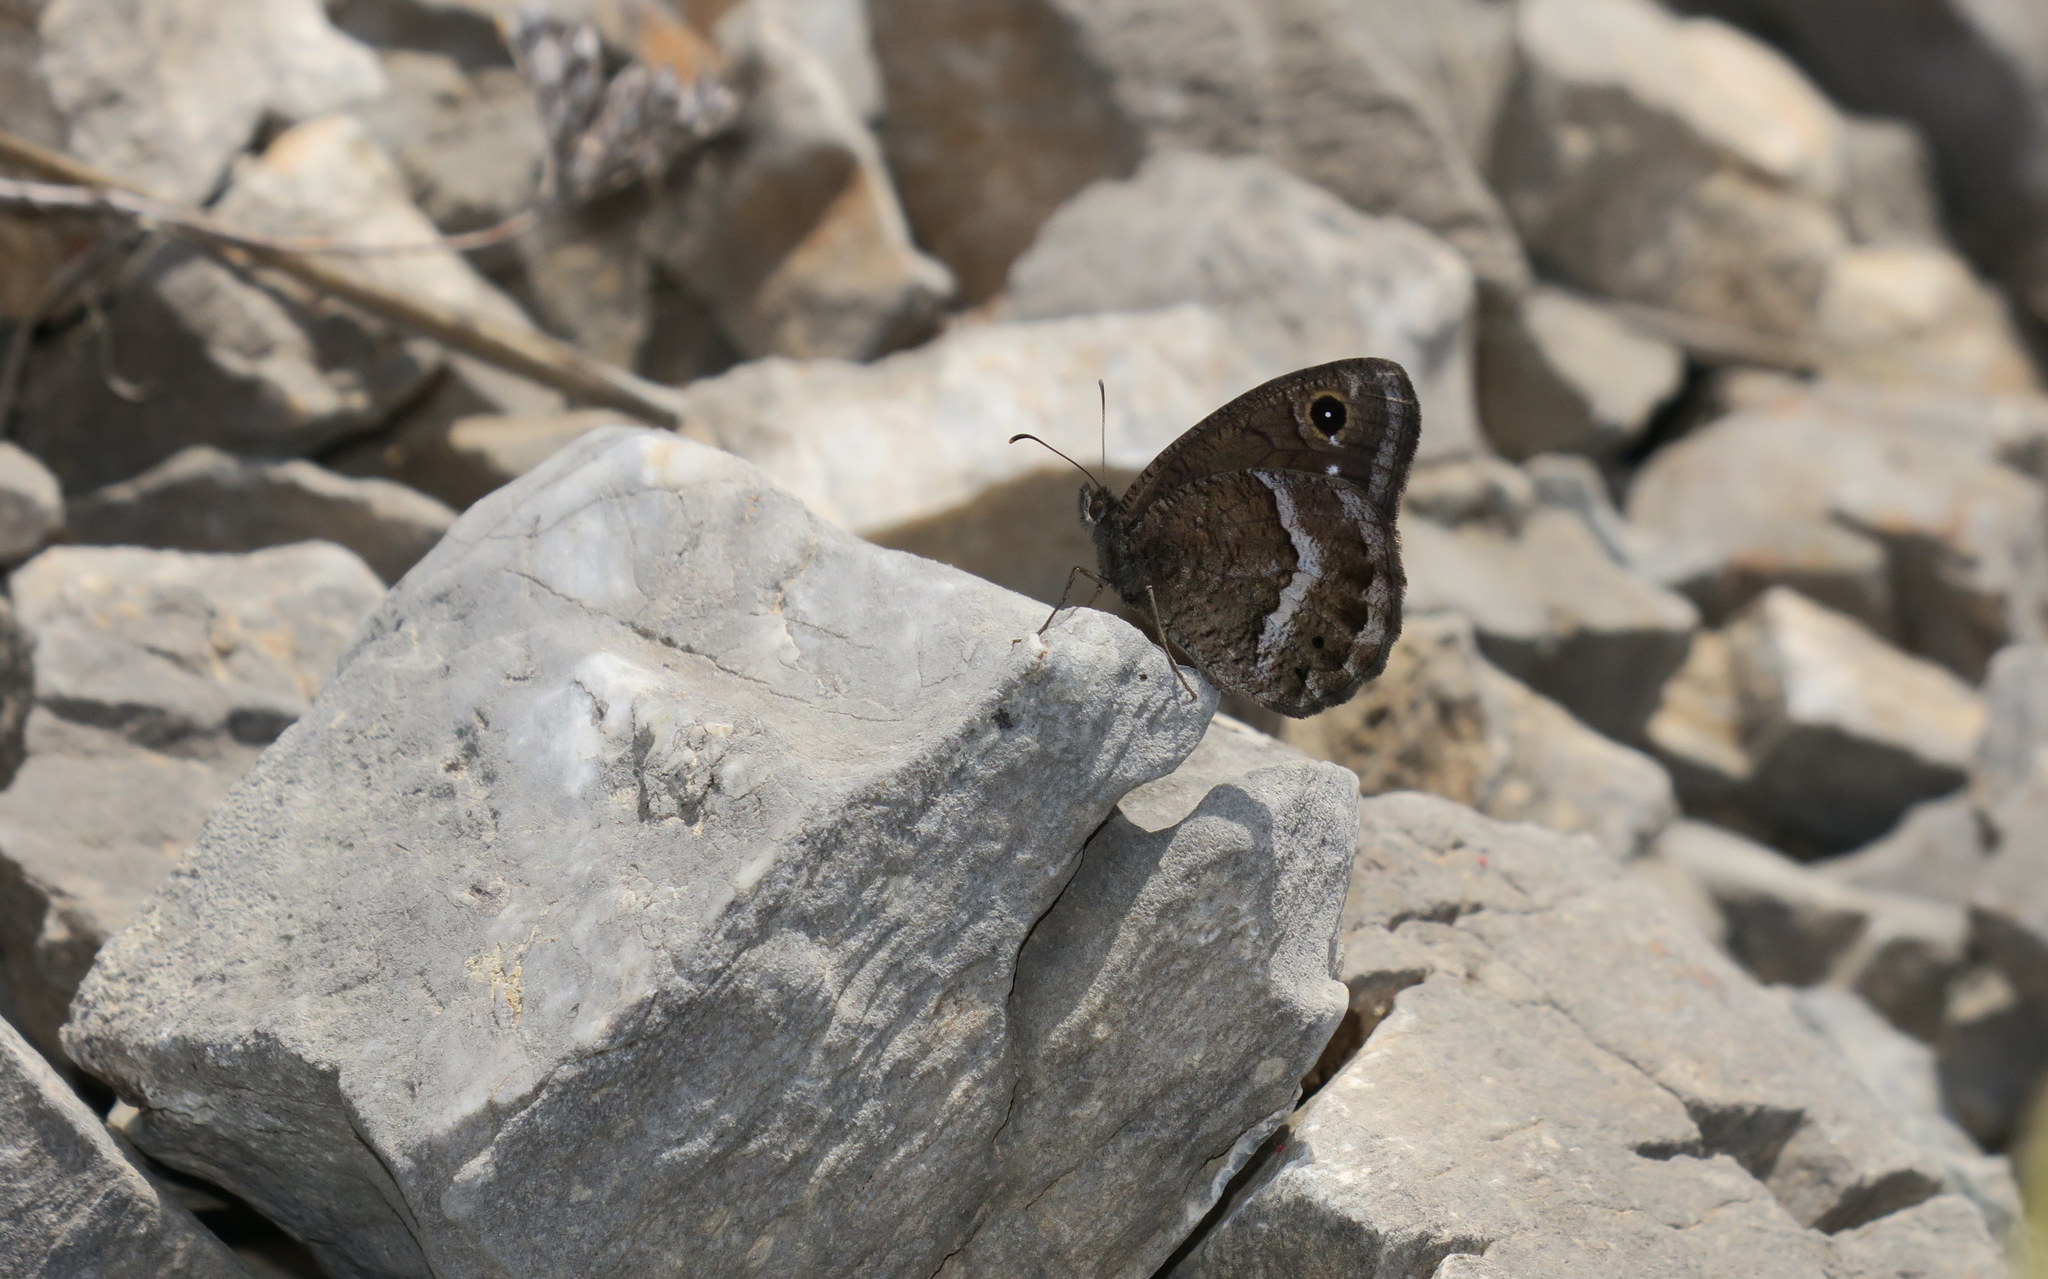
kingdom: Animalia
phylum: Arthropoda
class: Insecta
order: Lepidoptera
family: Nymphalidae
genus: Satyrus
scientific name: Satyrus ferula
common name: Great sooty satyr
